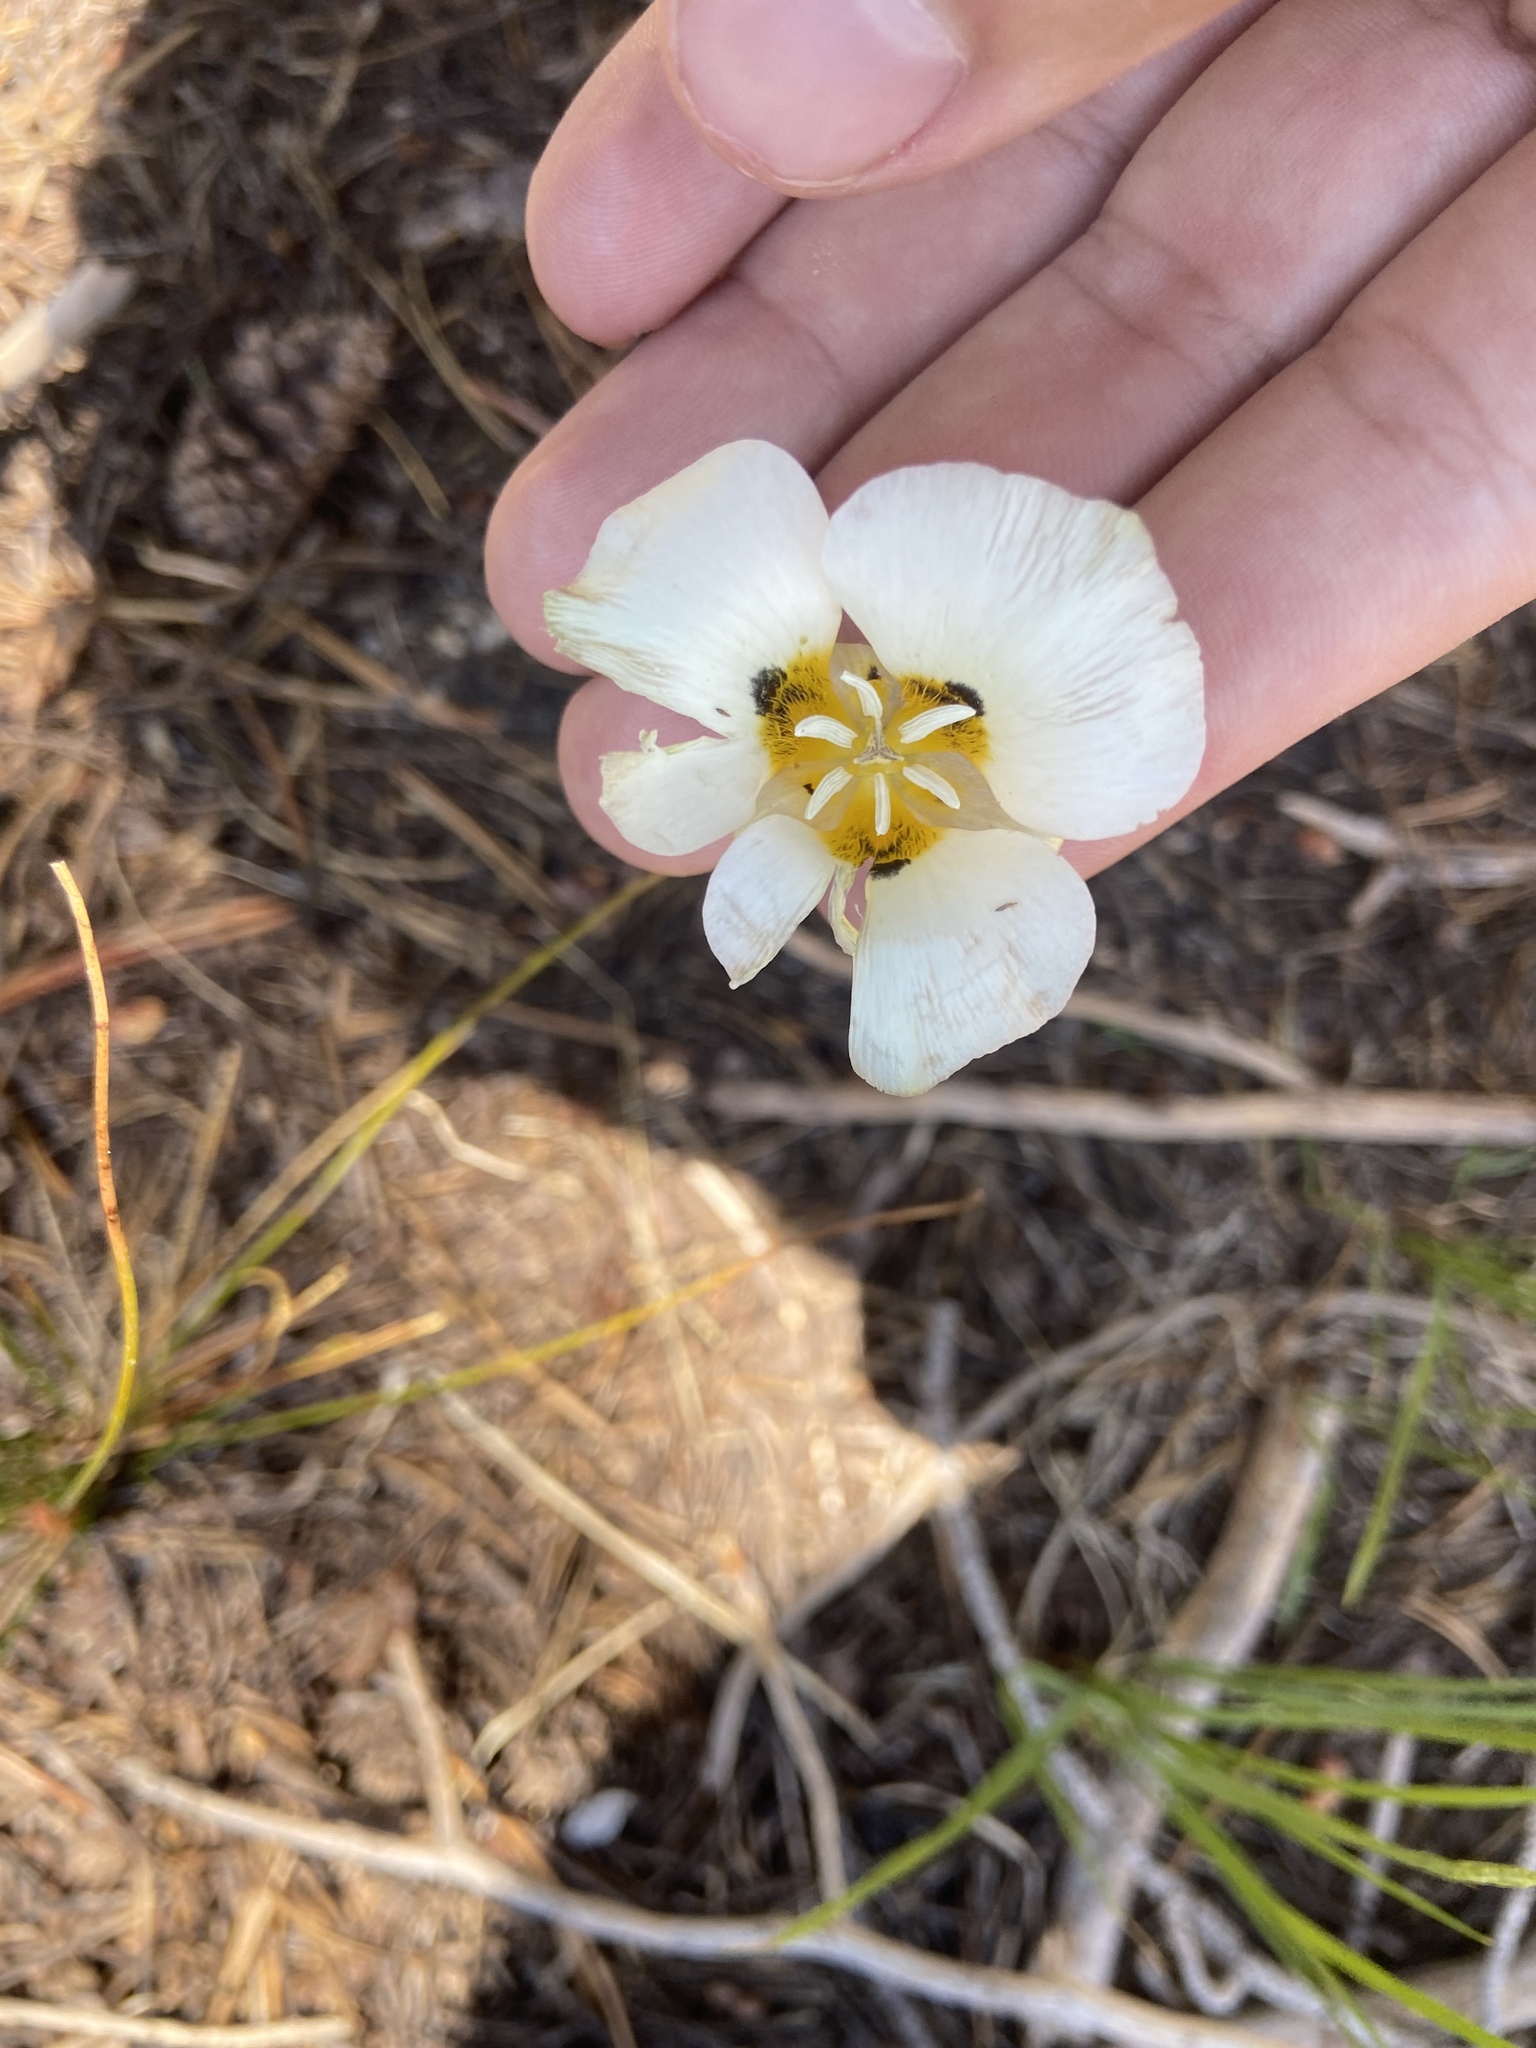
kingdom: Plantae
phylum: Tracheophyta
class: Liliopsida
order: Liliales
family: Liliaceae
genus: Calochortus
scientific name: Calochortus leichtlinii
